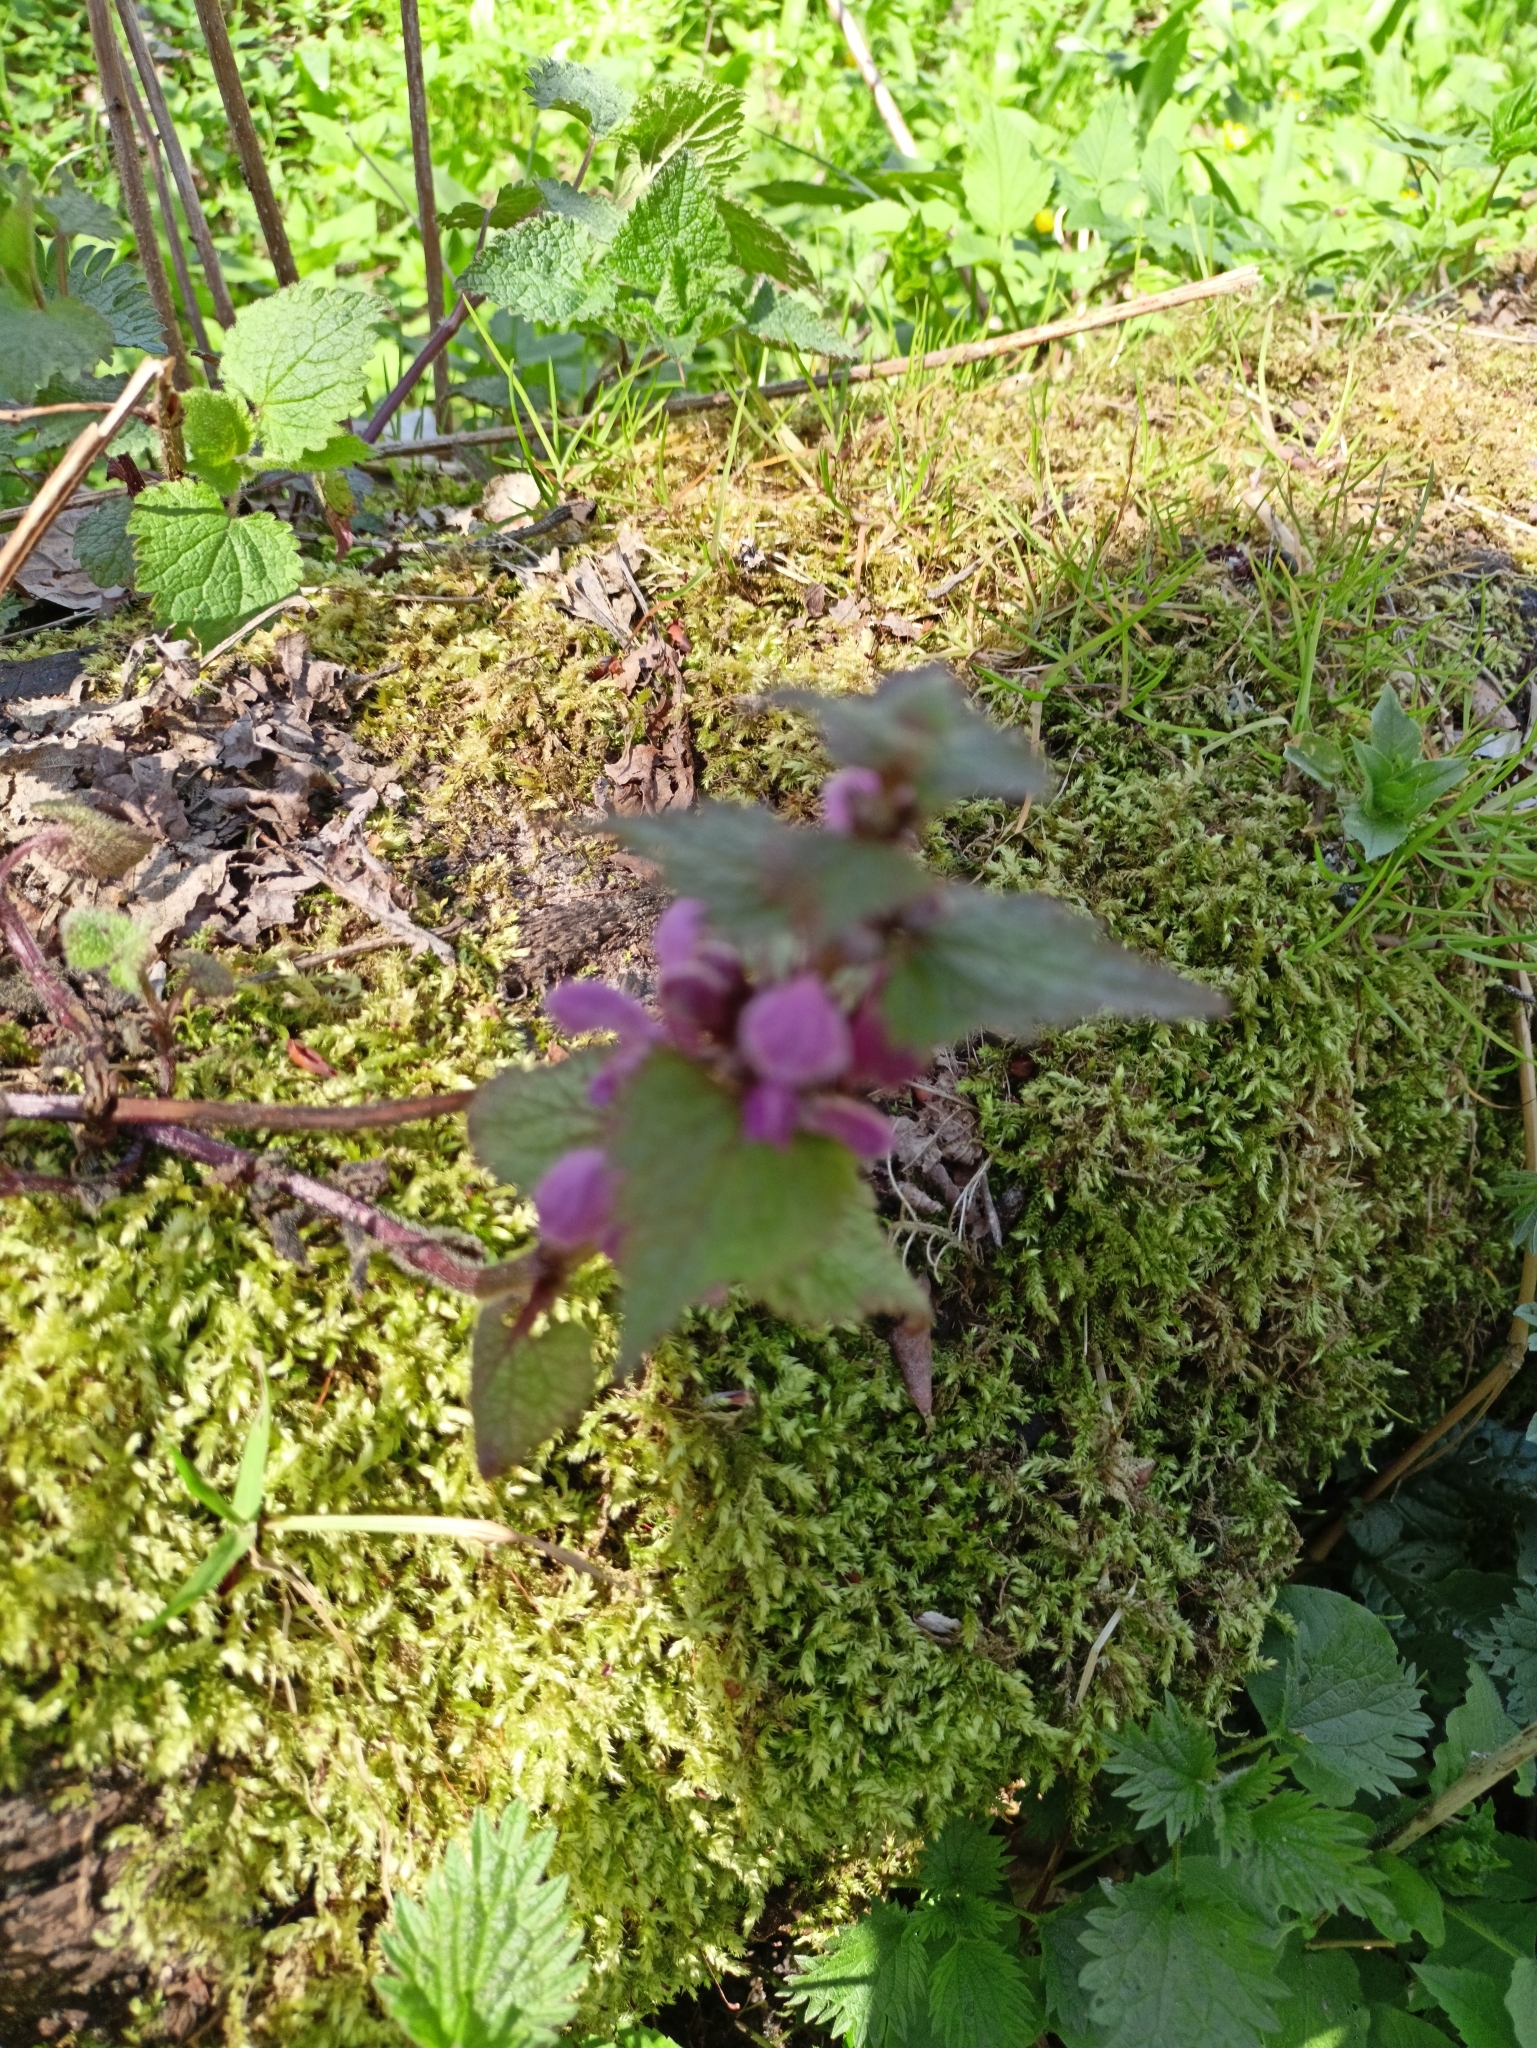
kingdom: Plantae
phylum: Tracheophyta
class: Magnoliopsida
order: Lamiales
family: Lamiaceae
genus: Lamium
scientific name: Lamium maculatum
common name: Spotted dead-nettle
